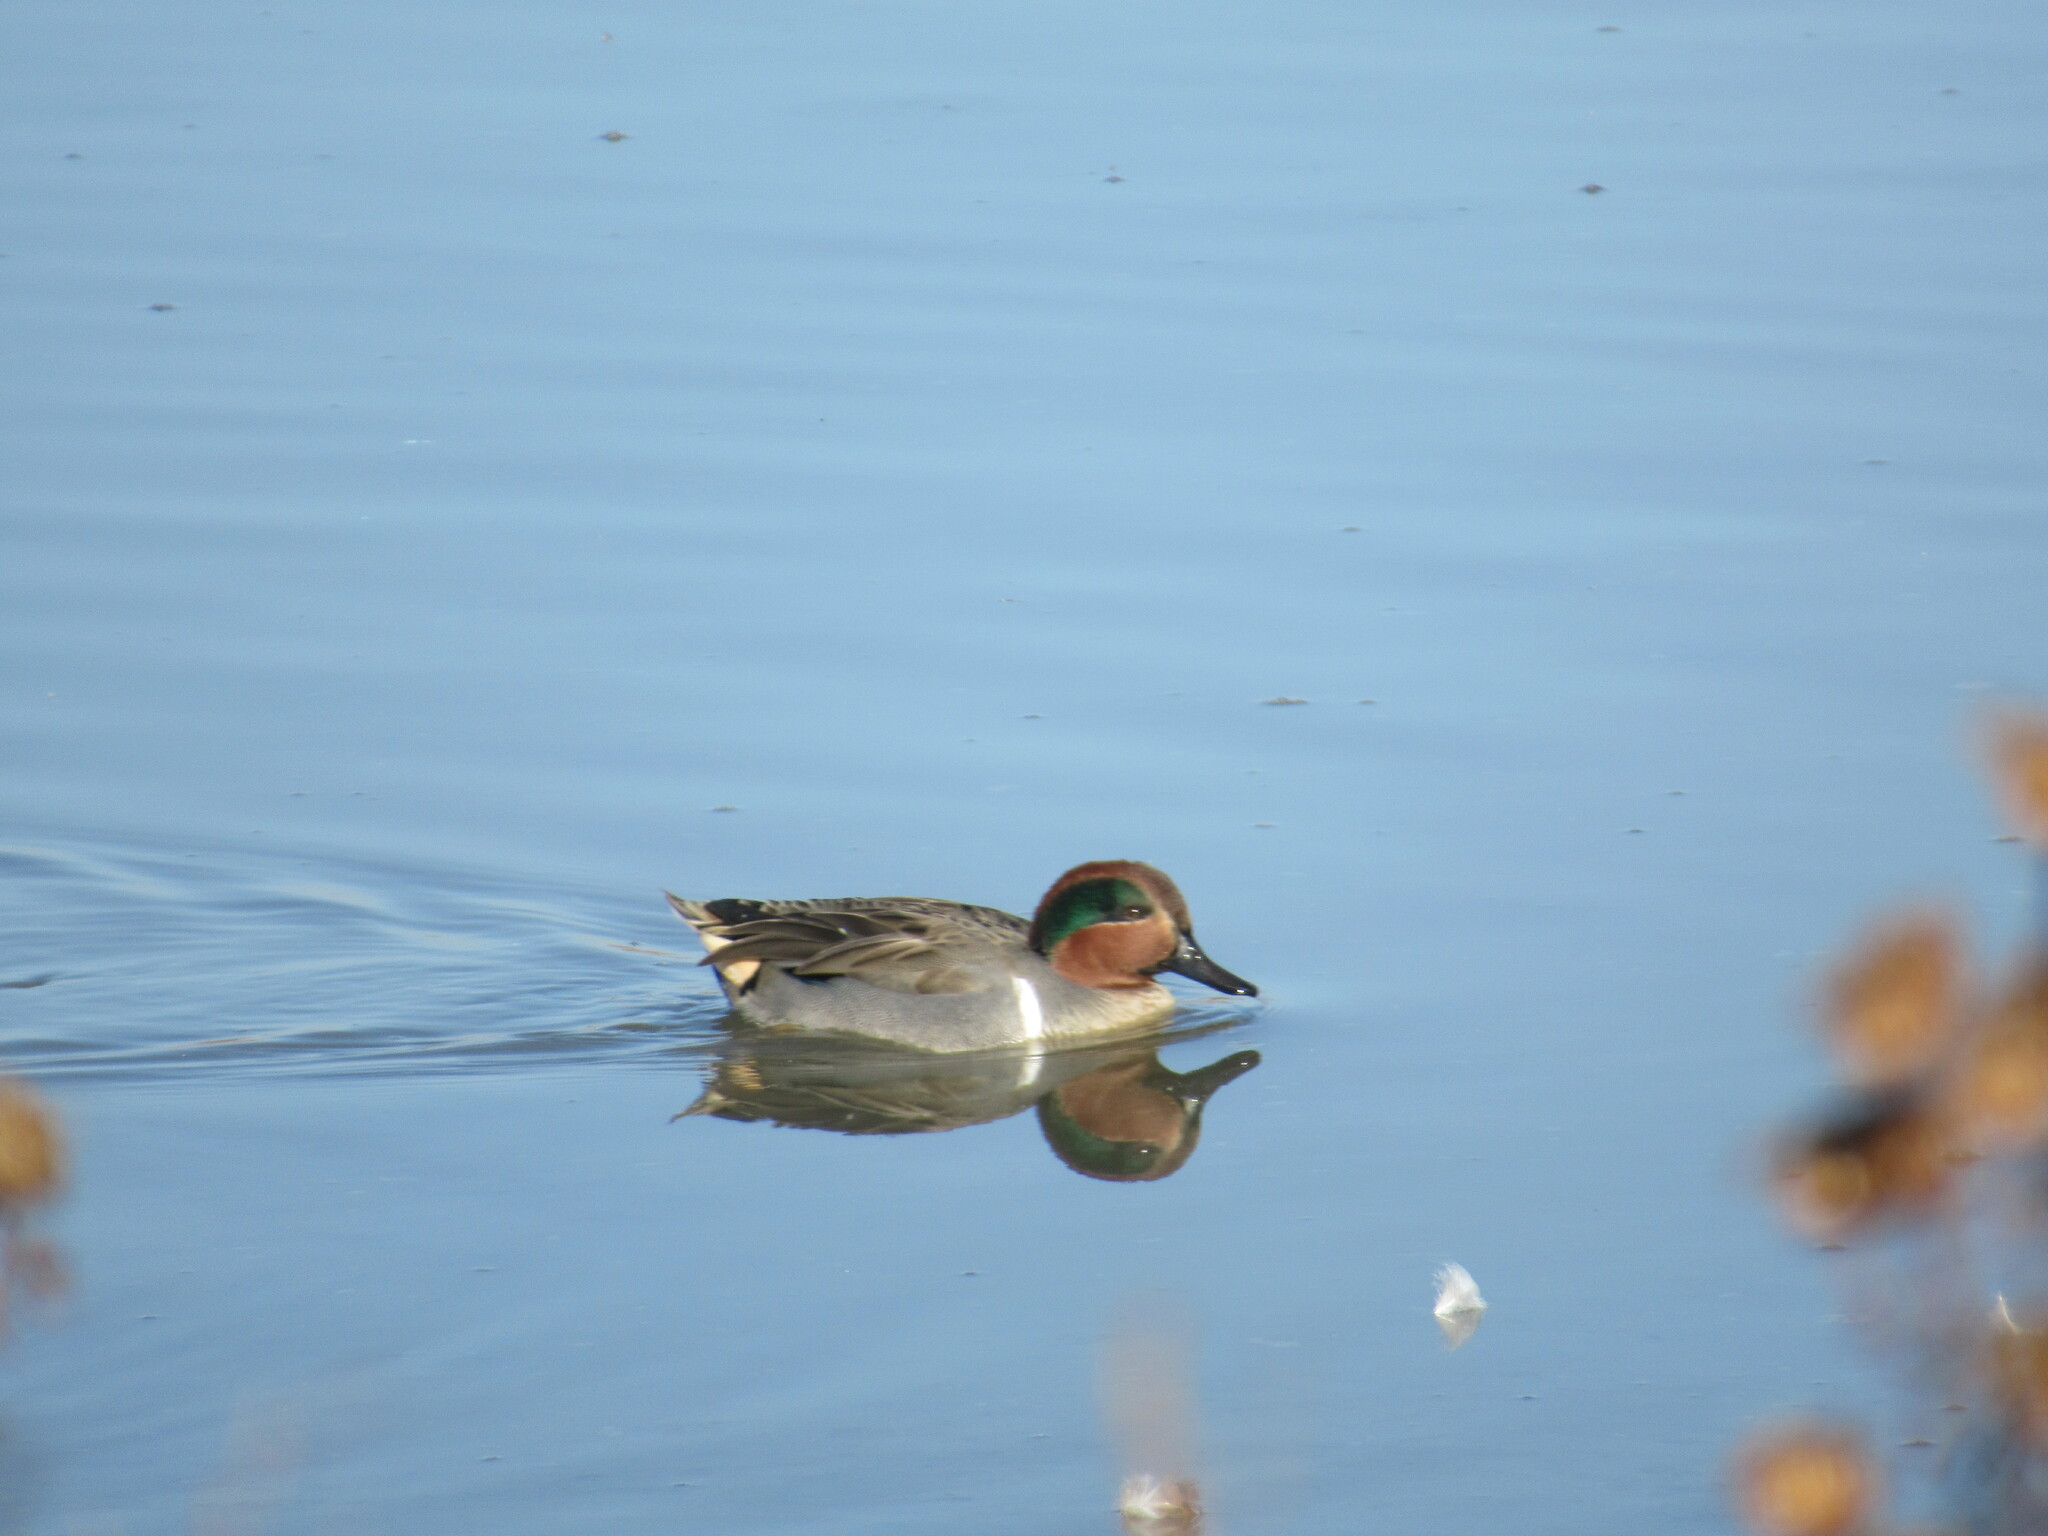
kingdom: Animalia
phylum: Chordata
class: Aves
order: Anseriformes
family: Anatidae
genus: Anas
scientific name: Anas crecca
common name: Eurasian teal
